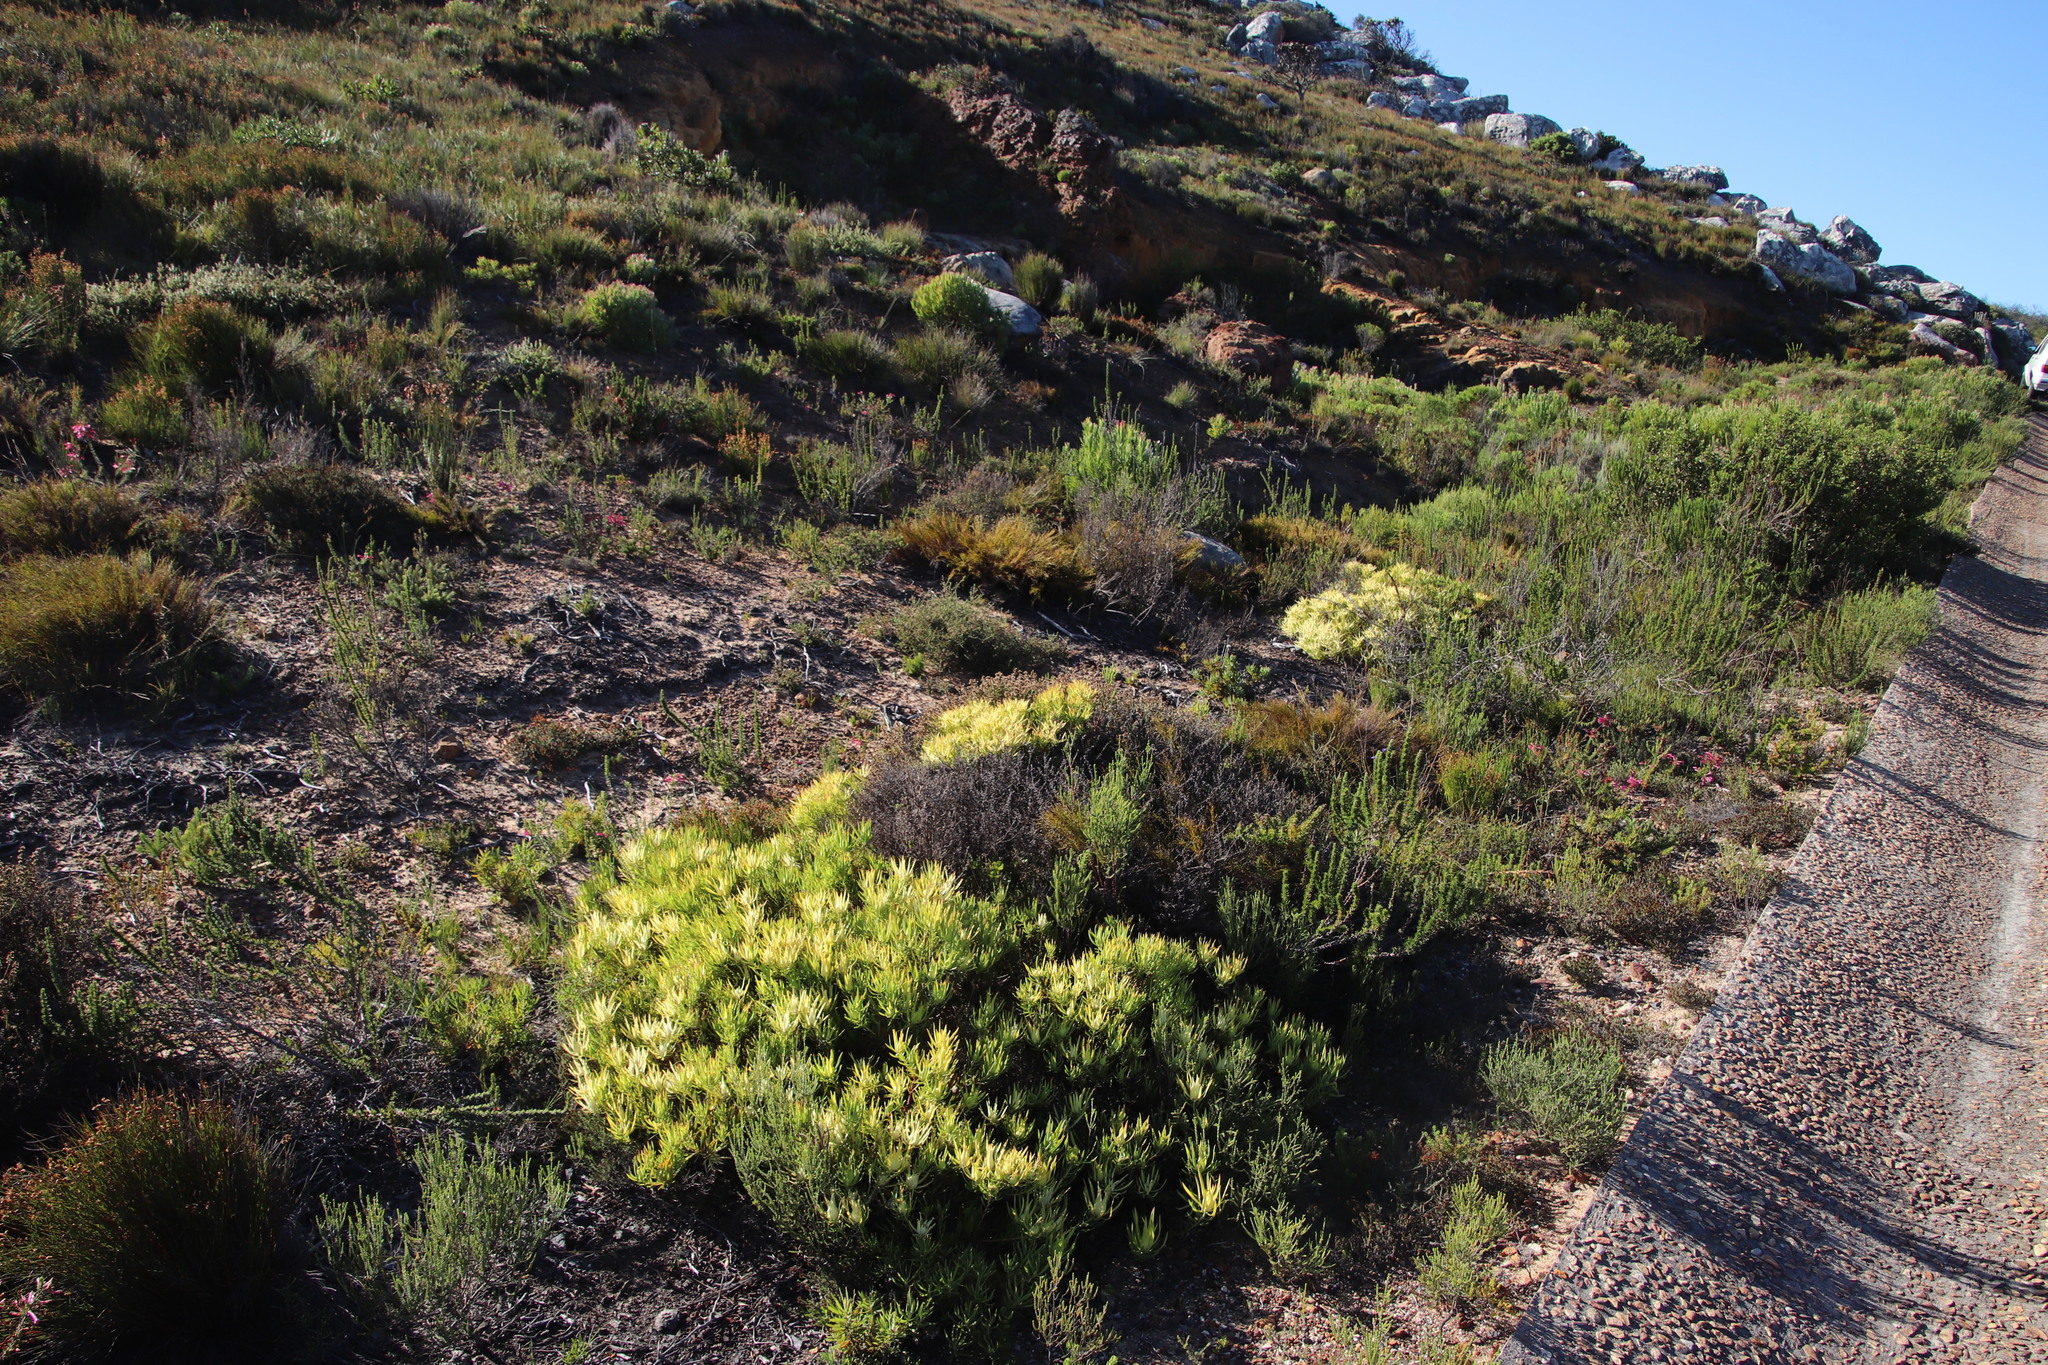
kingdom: Plantae
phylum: Tracheophyta
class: Magnoliopsida
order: Proteales
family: Proteaceae
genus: Leucadendron
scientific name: Leucadendron salignum
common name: Common sunshine conebush
